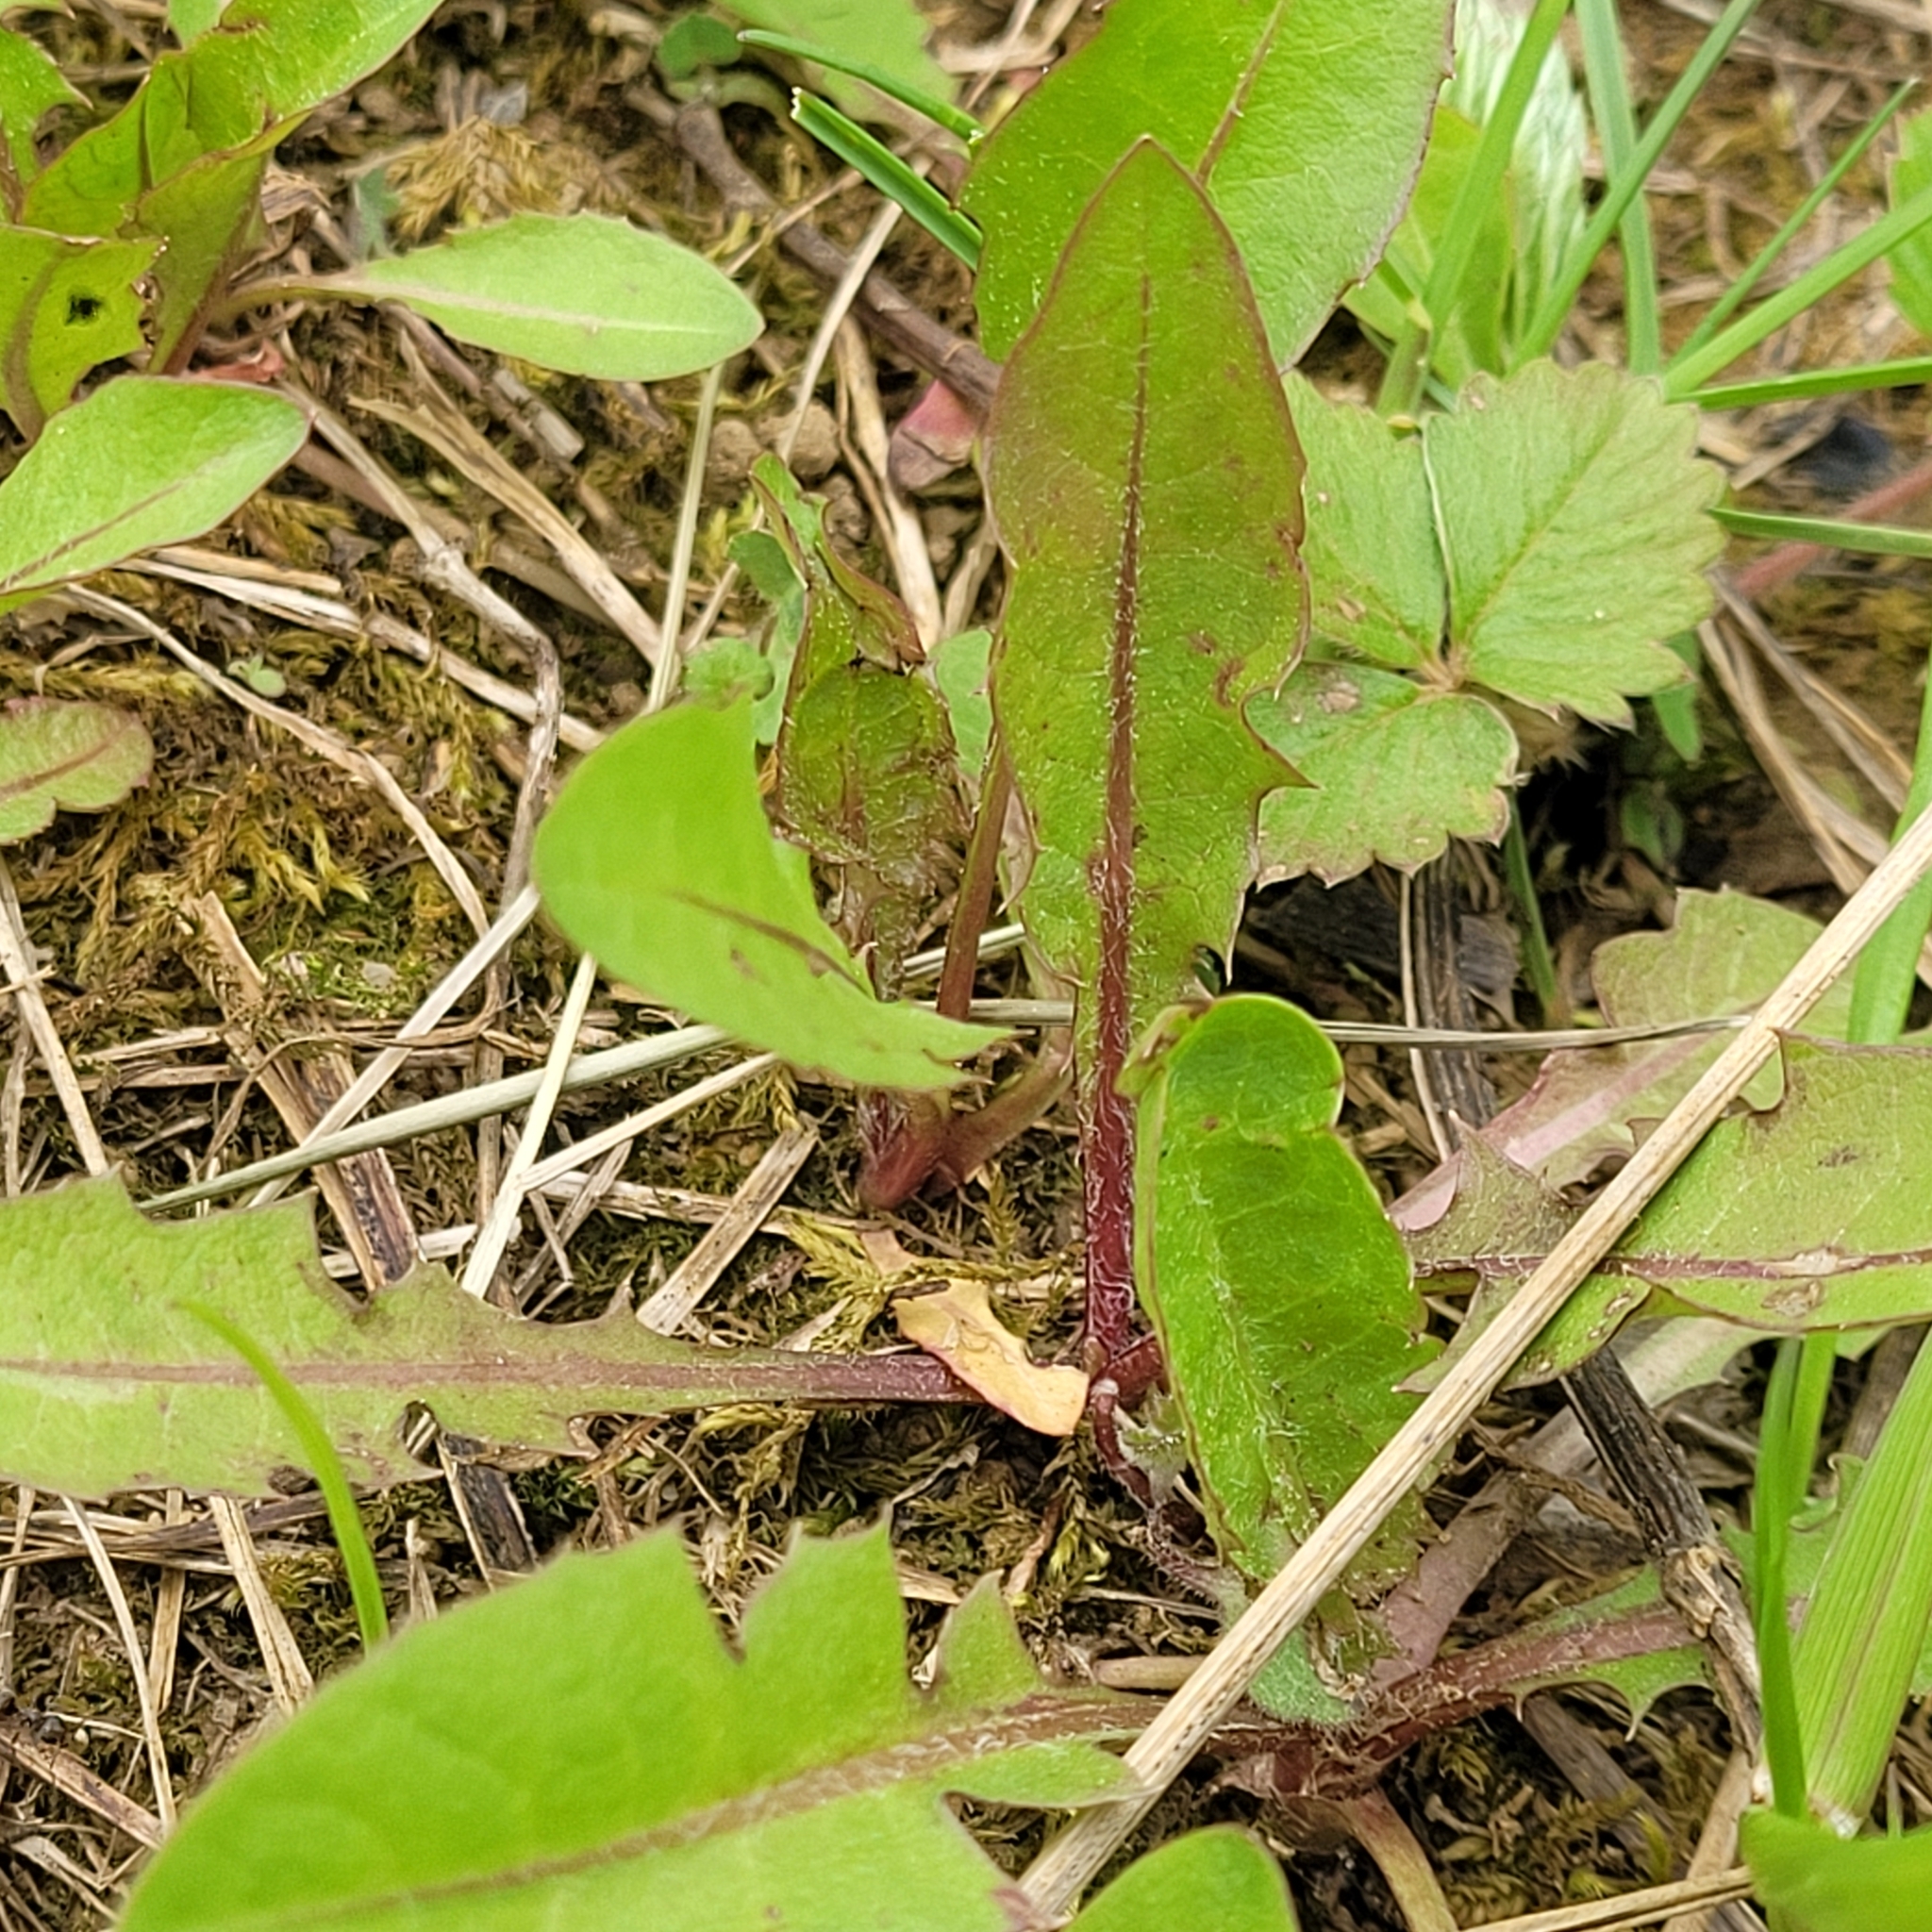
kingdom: Plantae
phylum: Tracheophyta
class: Magnoliopsida
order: Asterales
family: Asteraceae
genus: Taraxacum
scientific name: Taraxacum officinale
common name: Common dandelion
